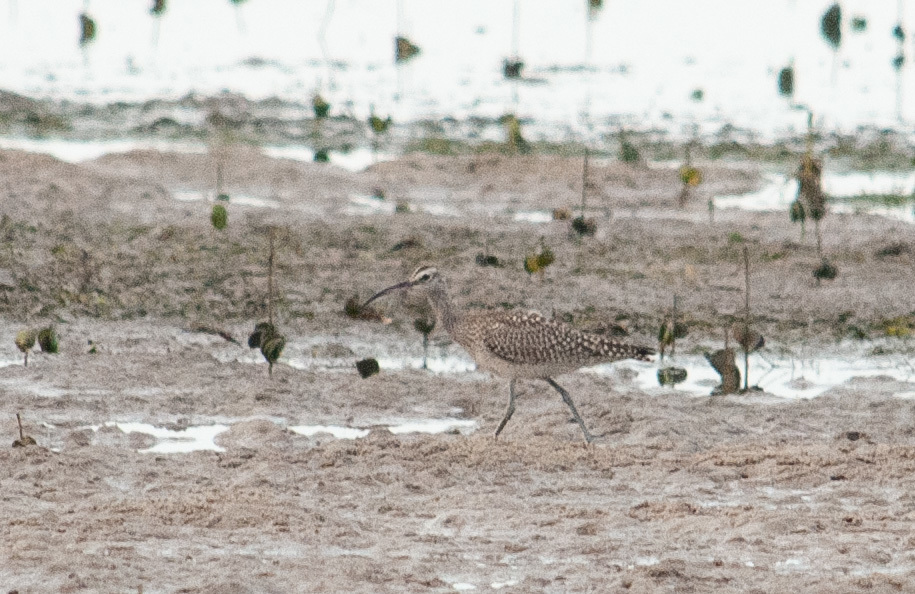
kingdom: Animalia
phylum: Chordata
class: Aves
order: Charadriiformes
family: Scolopacidae
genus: Numenius
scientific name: Numenius phaeopus
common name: Whimbrel
